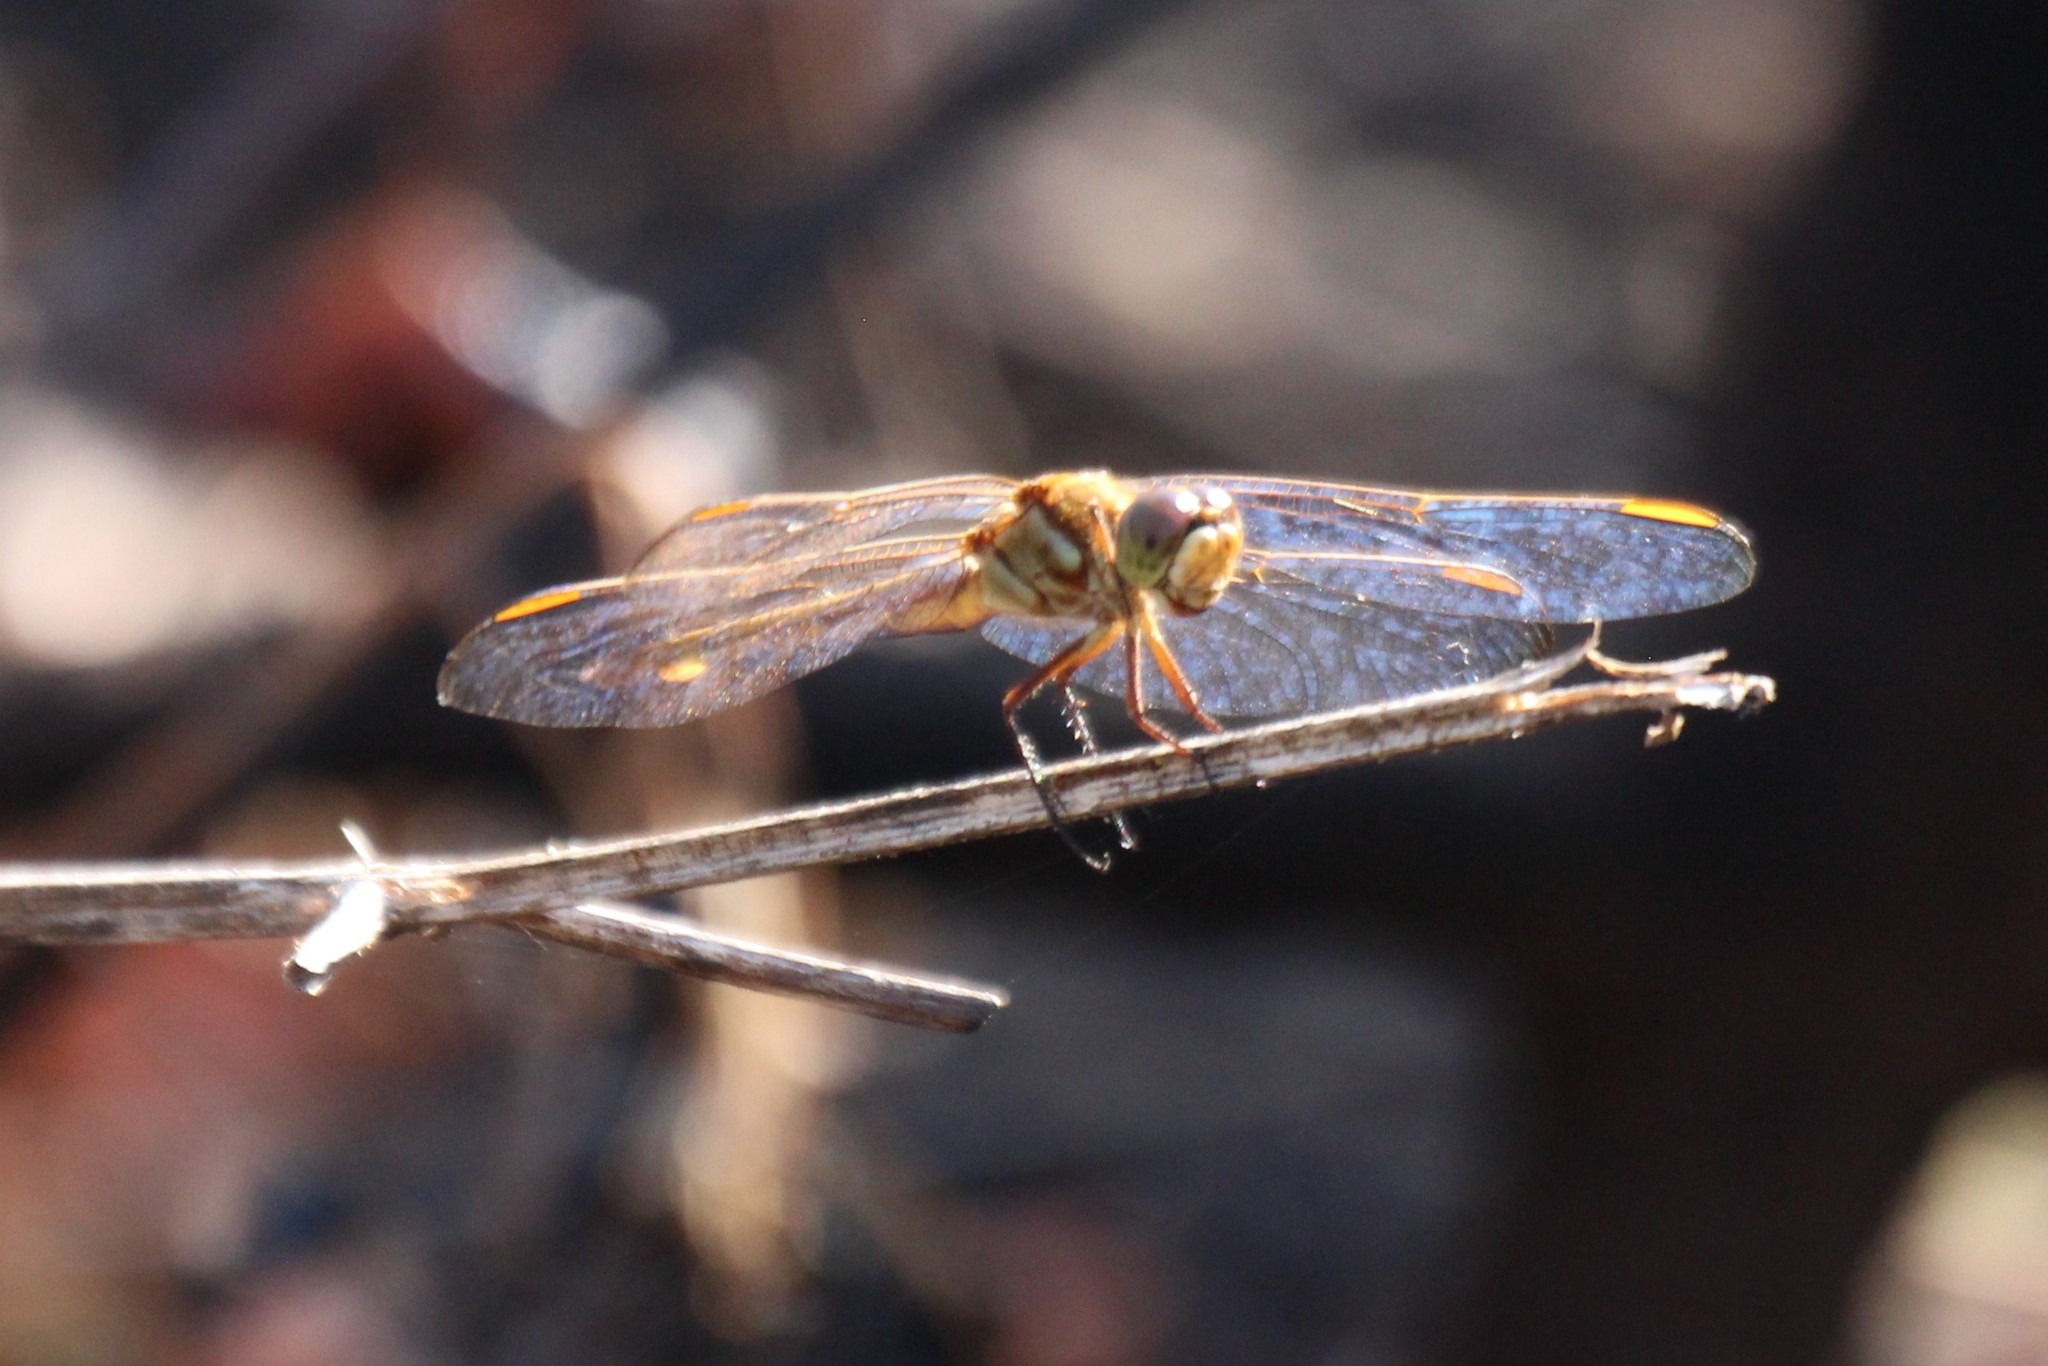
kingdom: Animalia
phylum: Arthropoda
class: Insecta
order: Odonata
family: Libellulidae
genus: Libellula
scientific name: Libellula auripennis
